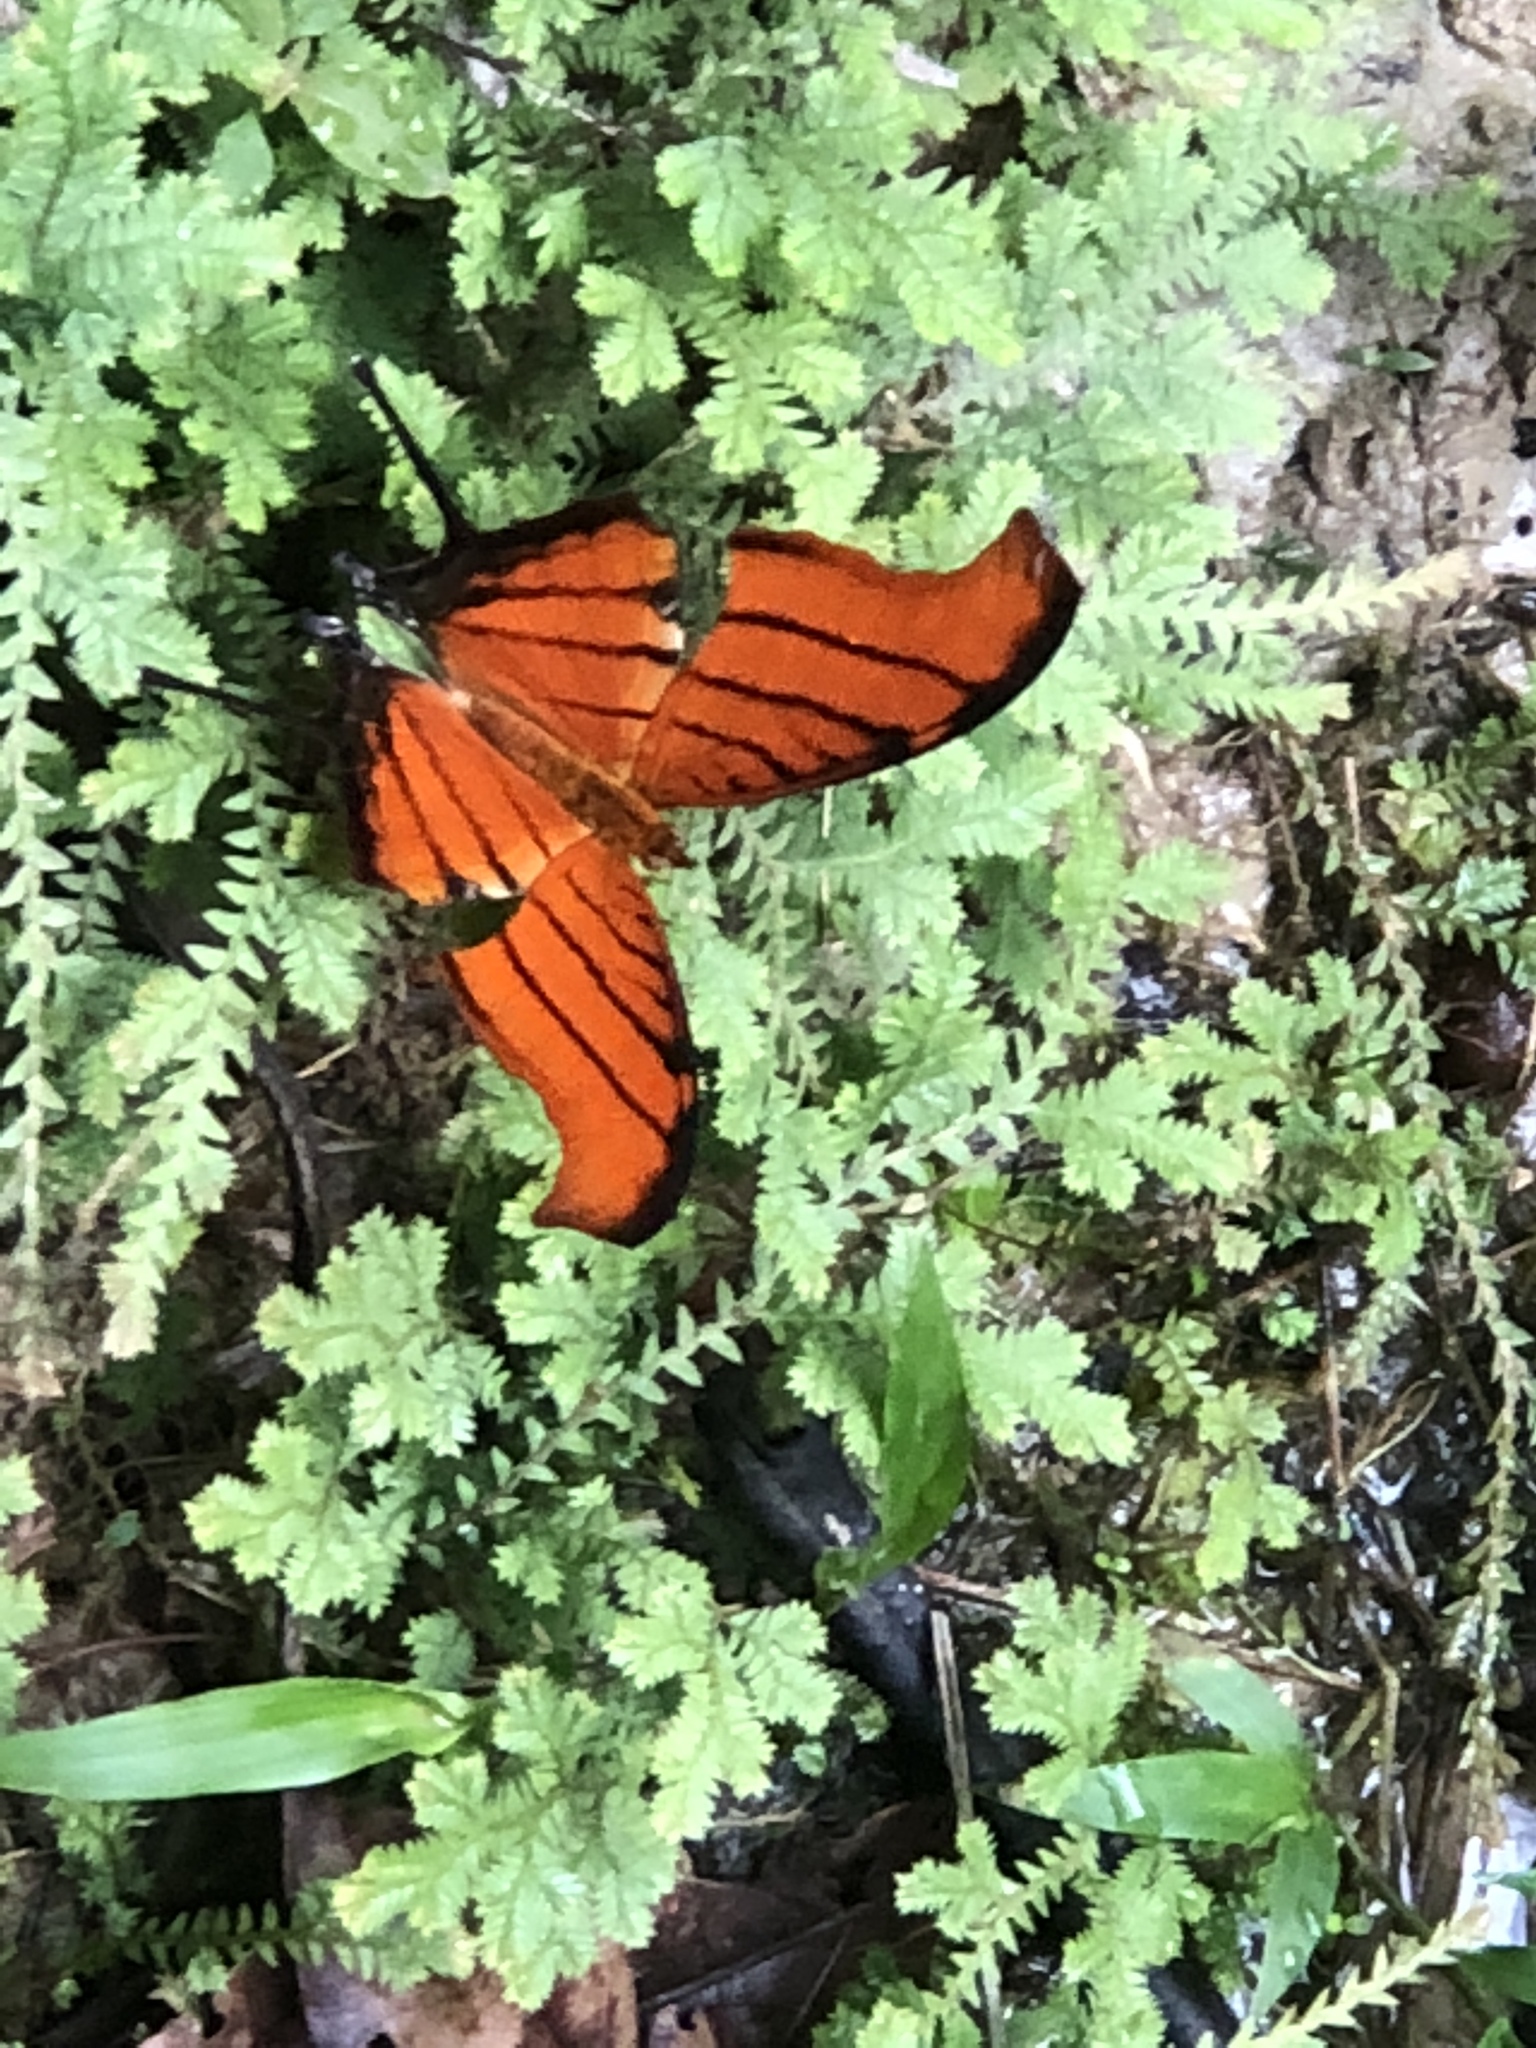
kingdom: Animalia
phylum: Arthropoda
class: Insecta
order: Lepidoptera
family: Nymphalidae
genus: Marpesia
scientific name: Marpesia petreus
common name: Red dagger wing
